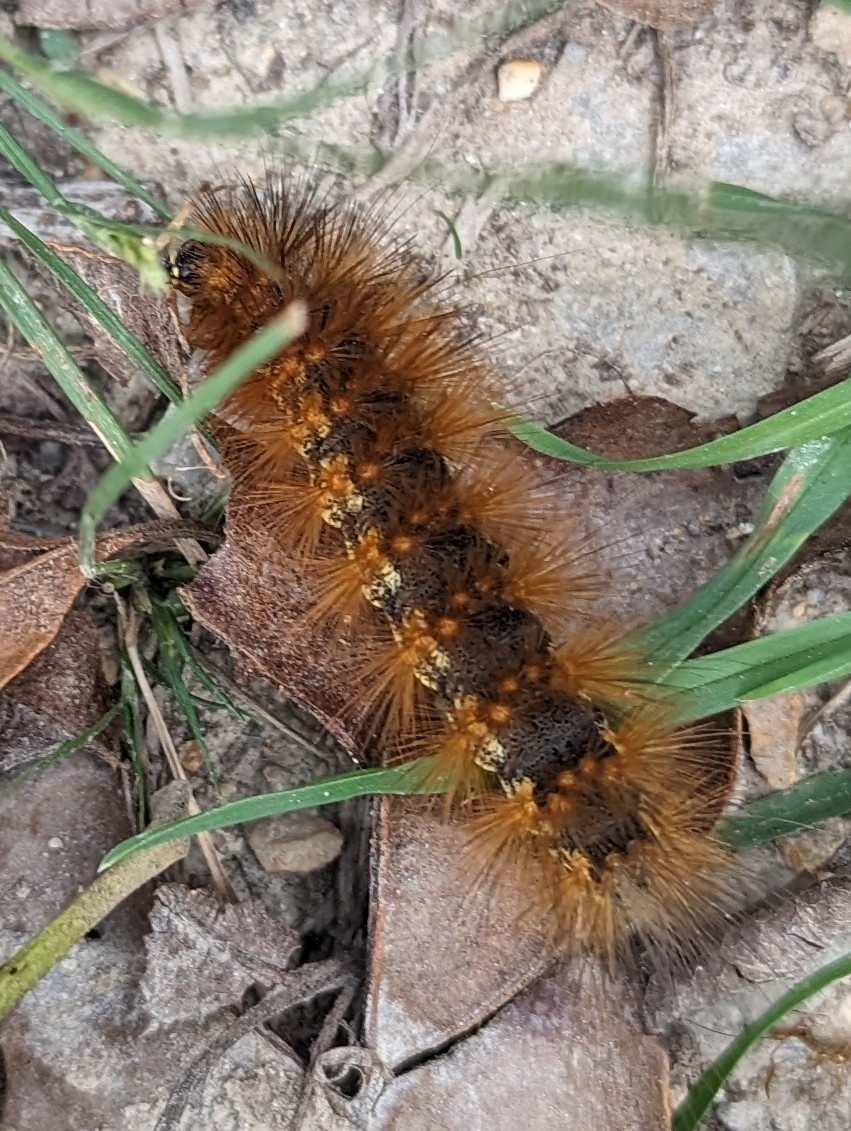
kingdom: Animalia
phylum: Arthropoda
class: Insecta
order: Lepidoptera
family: Erebidae
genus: Estigmene
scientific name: Estigmene acrea
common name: Salt marsh moth
